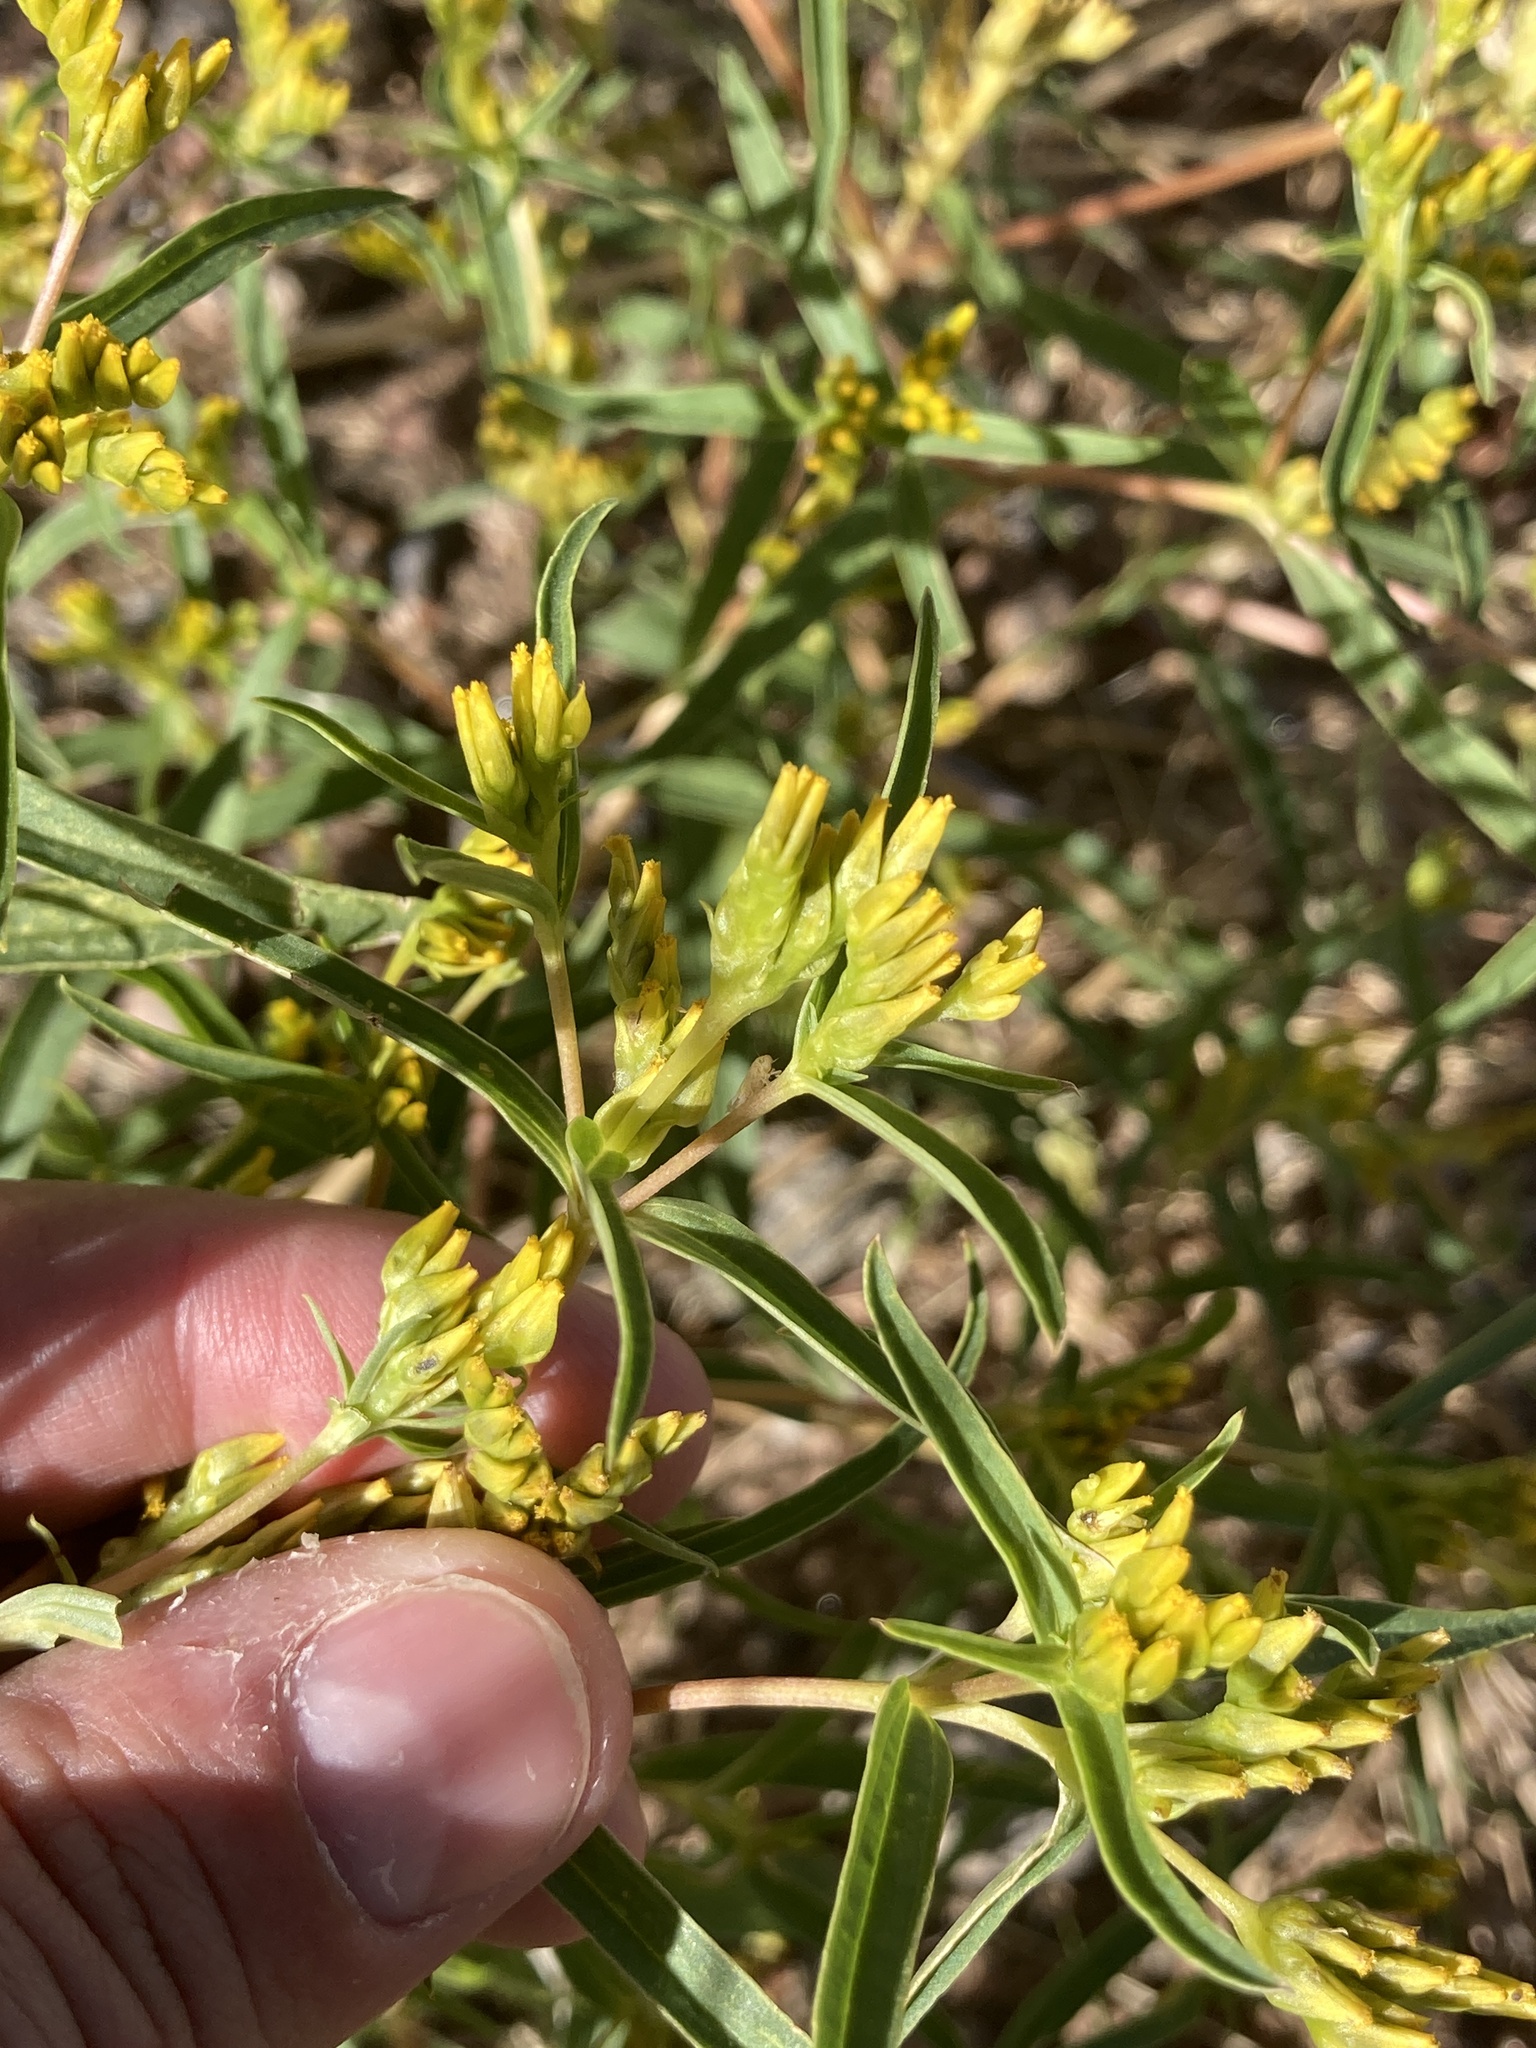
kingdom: Plantae
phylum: Tracheophyta
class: Magnoliopsida
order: Asterales
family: Asteraceae
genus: Flaveria
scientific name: Flaveria bidentis
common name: Coastal plain yellowtops
